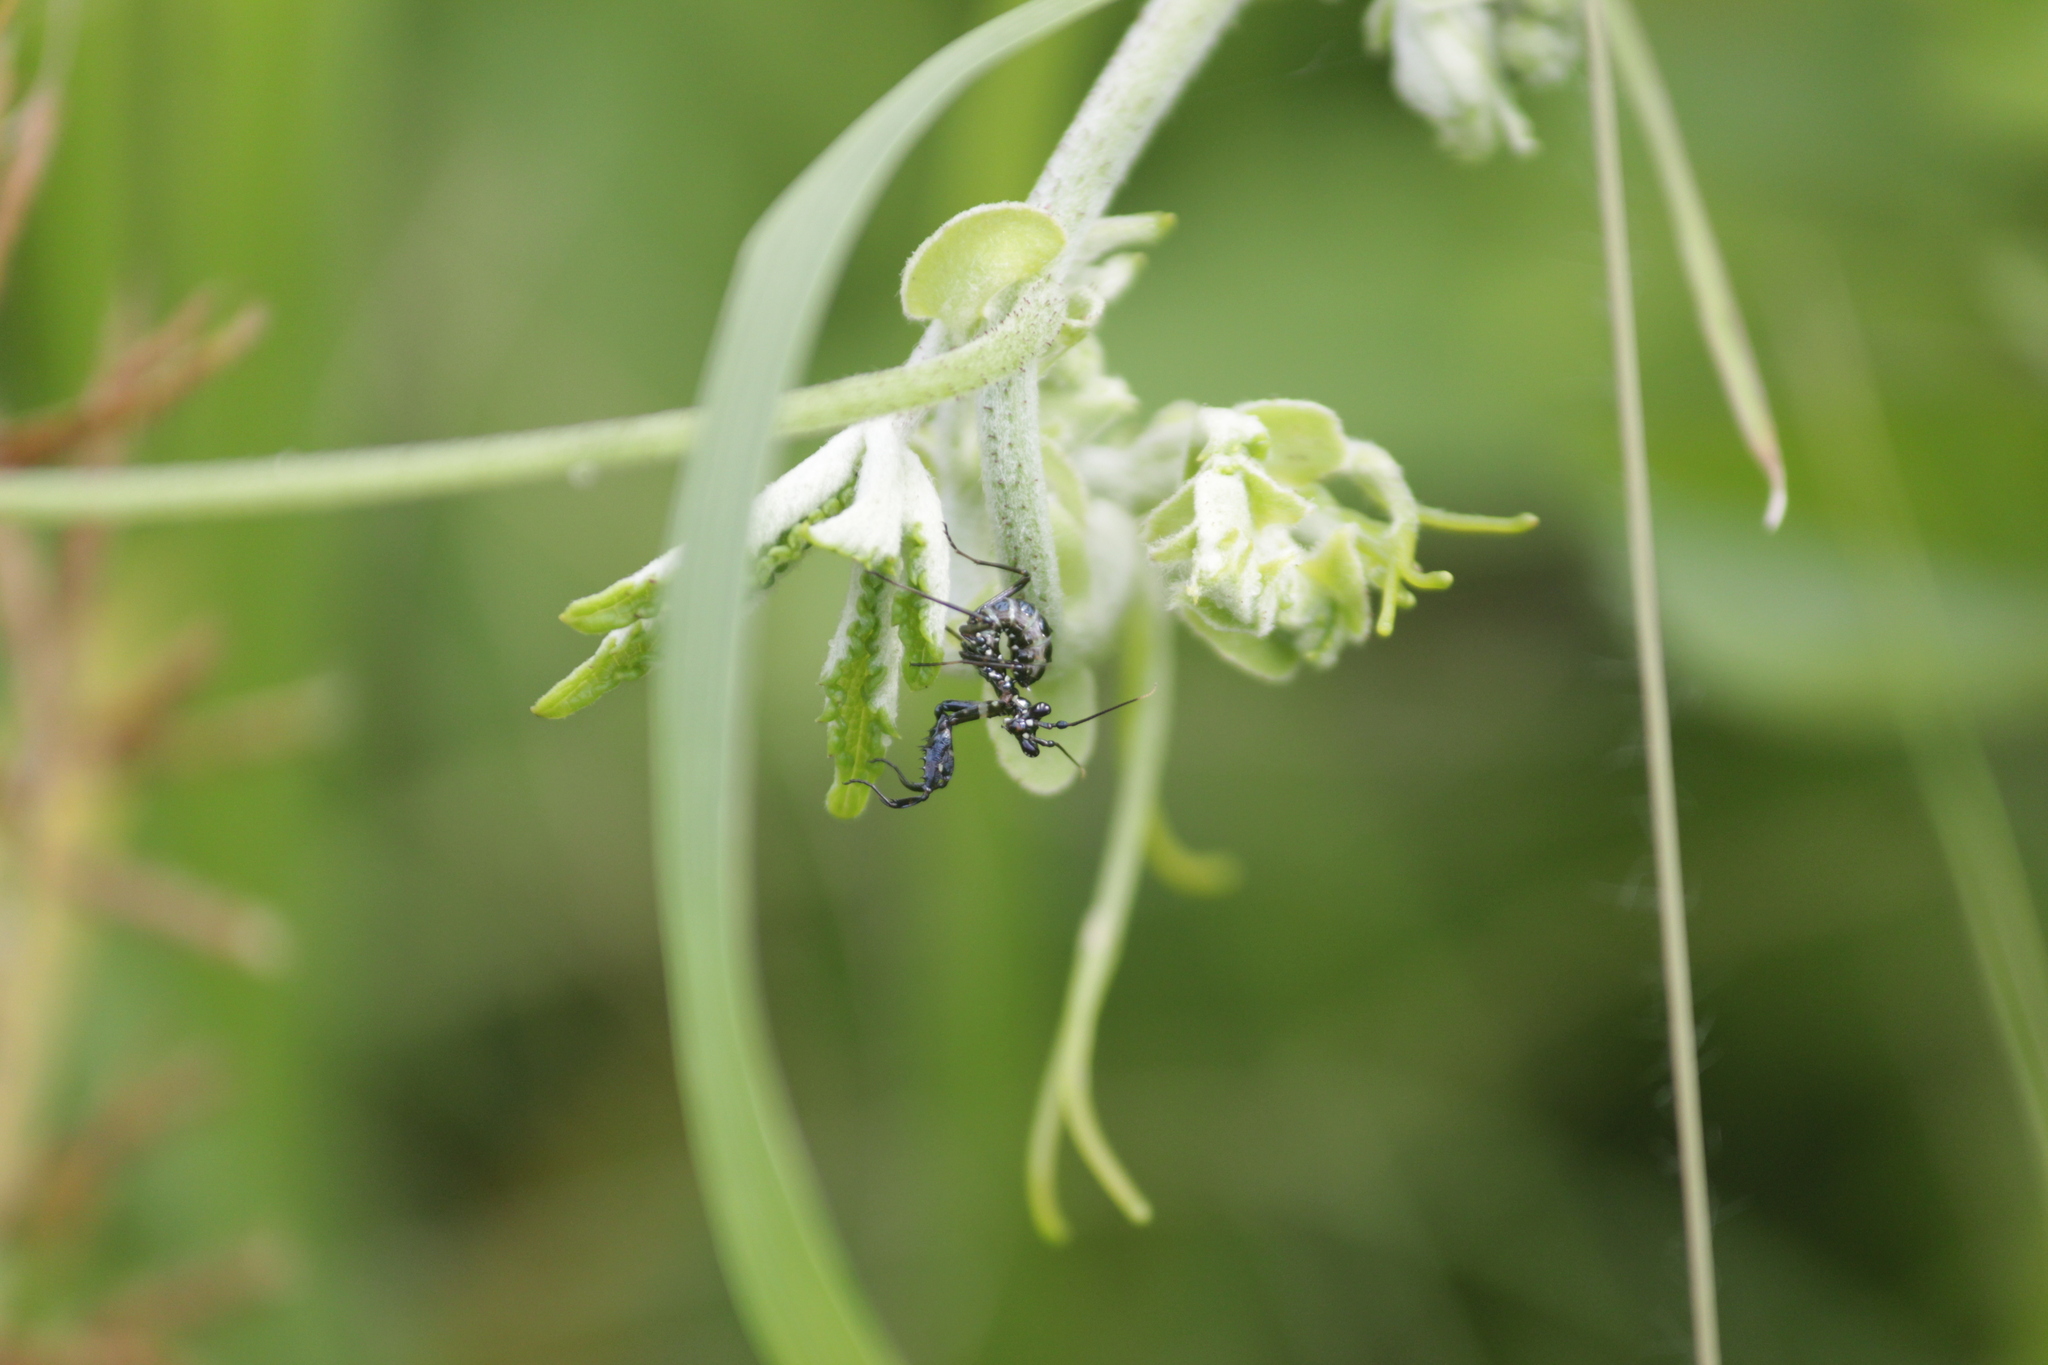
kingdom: Animalia
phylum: Arthropoda
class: Insecta
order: Mantodea
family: Hymenopodidae
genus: Pseudocreobotra
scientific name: Pseudocreobotra wahlbergi
